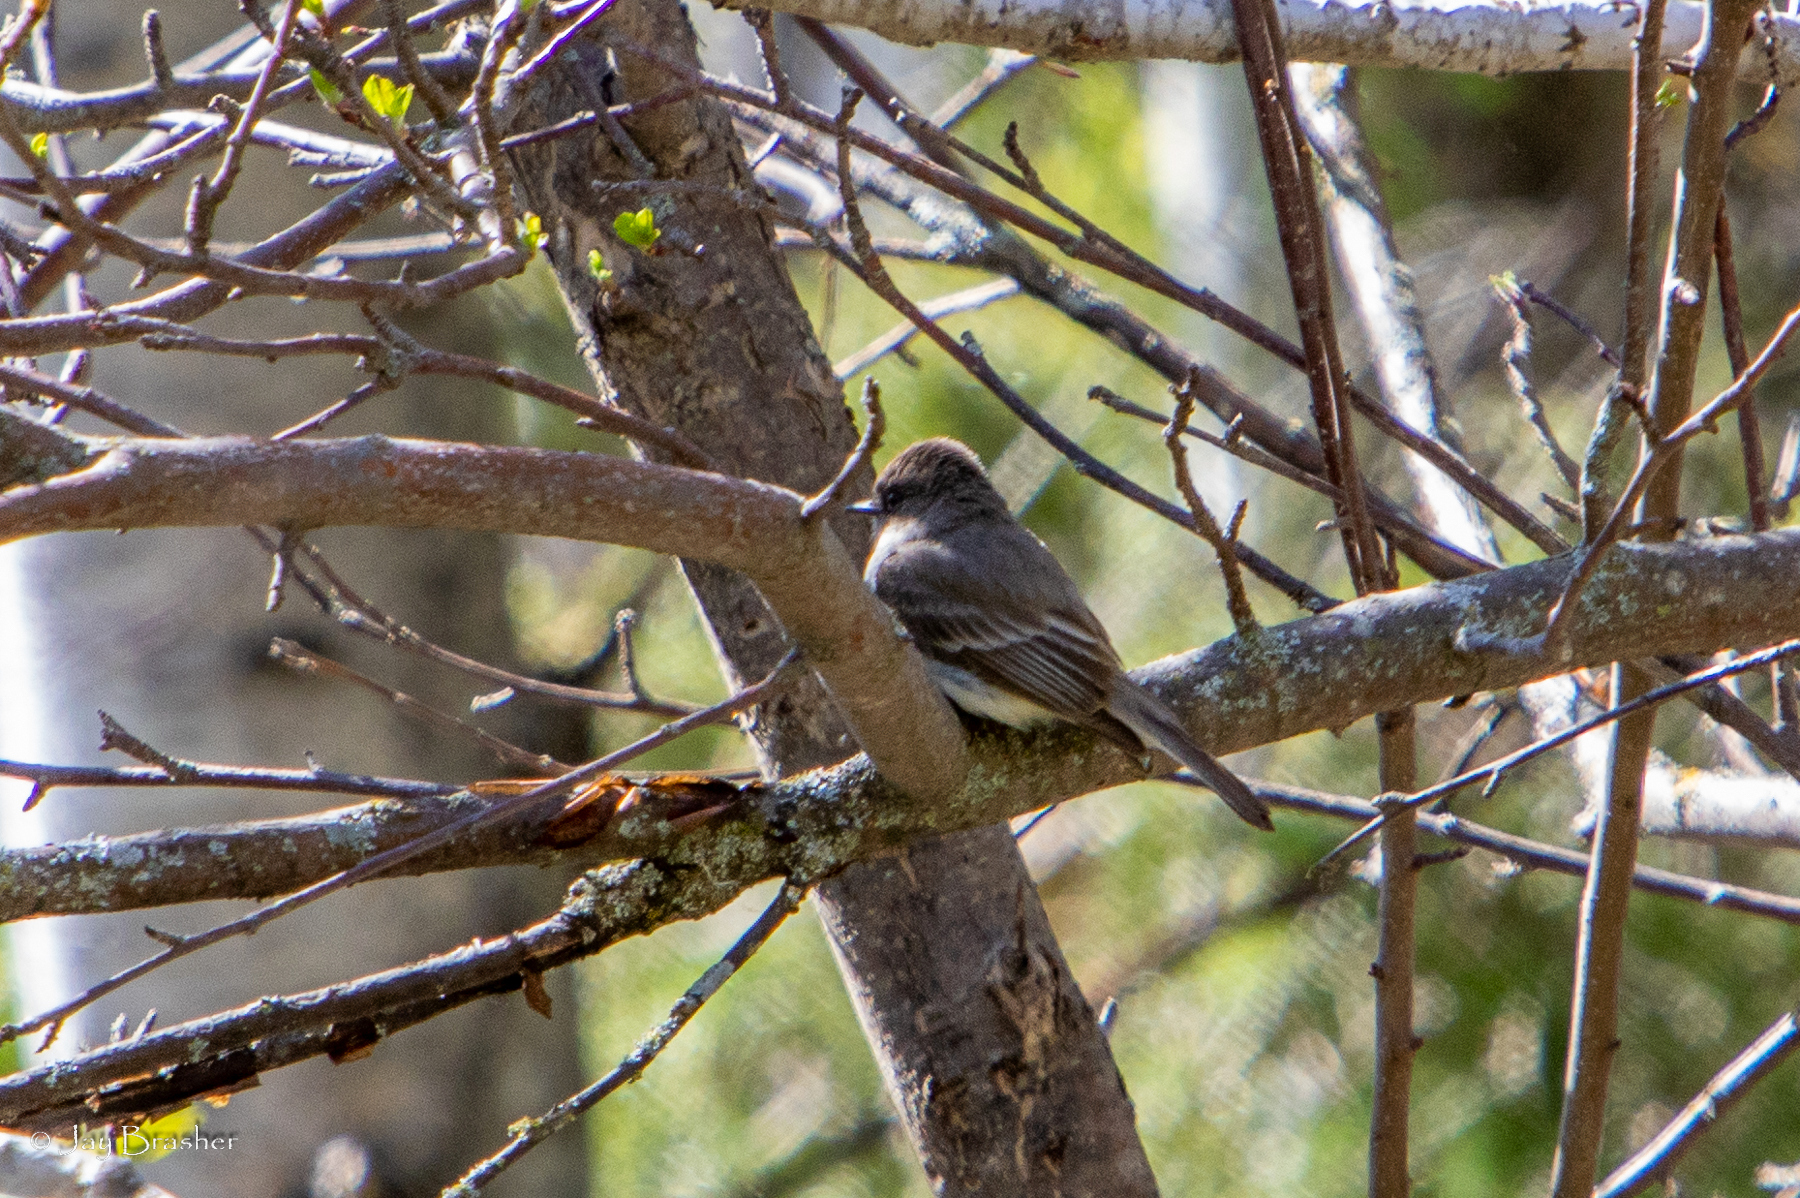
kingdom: Animalia
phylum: Chordata
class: Aves
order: Passeriformes
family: Tyrannidae
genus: Sayornis
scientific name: Sayornis phoebe
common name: Eastern phoebe
